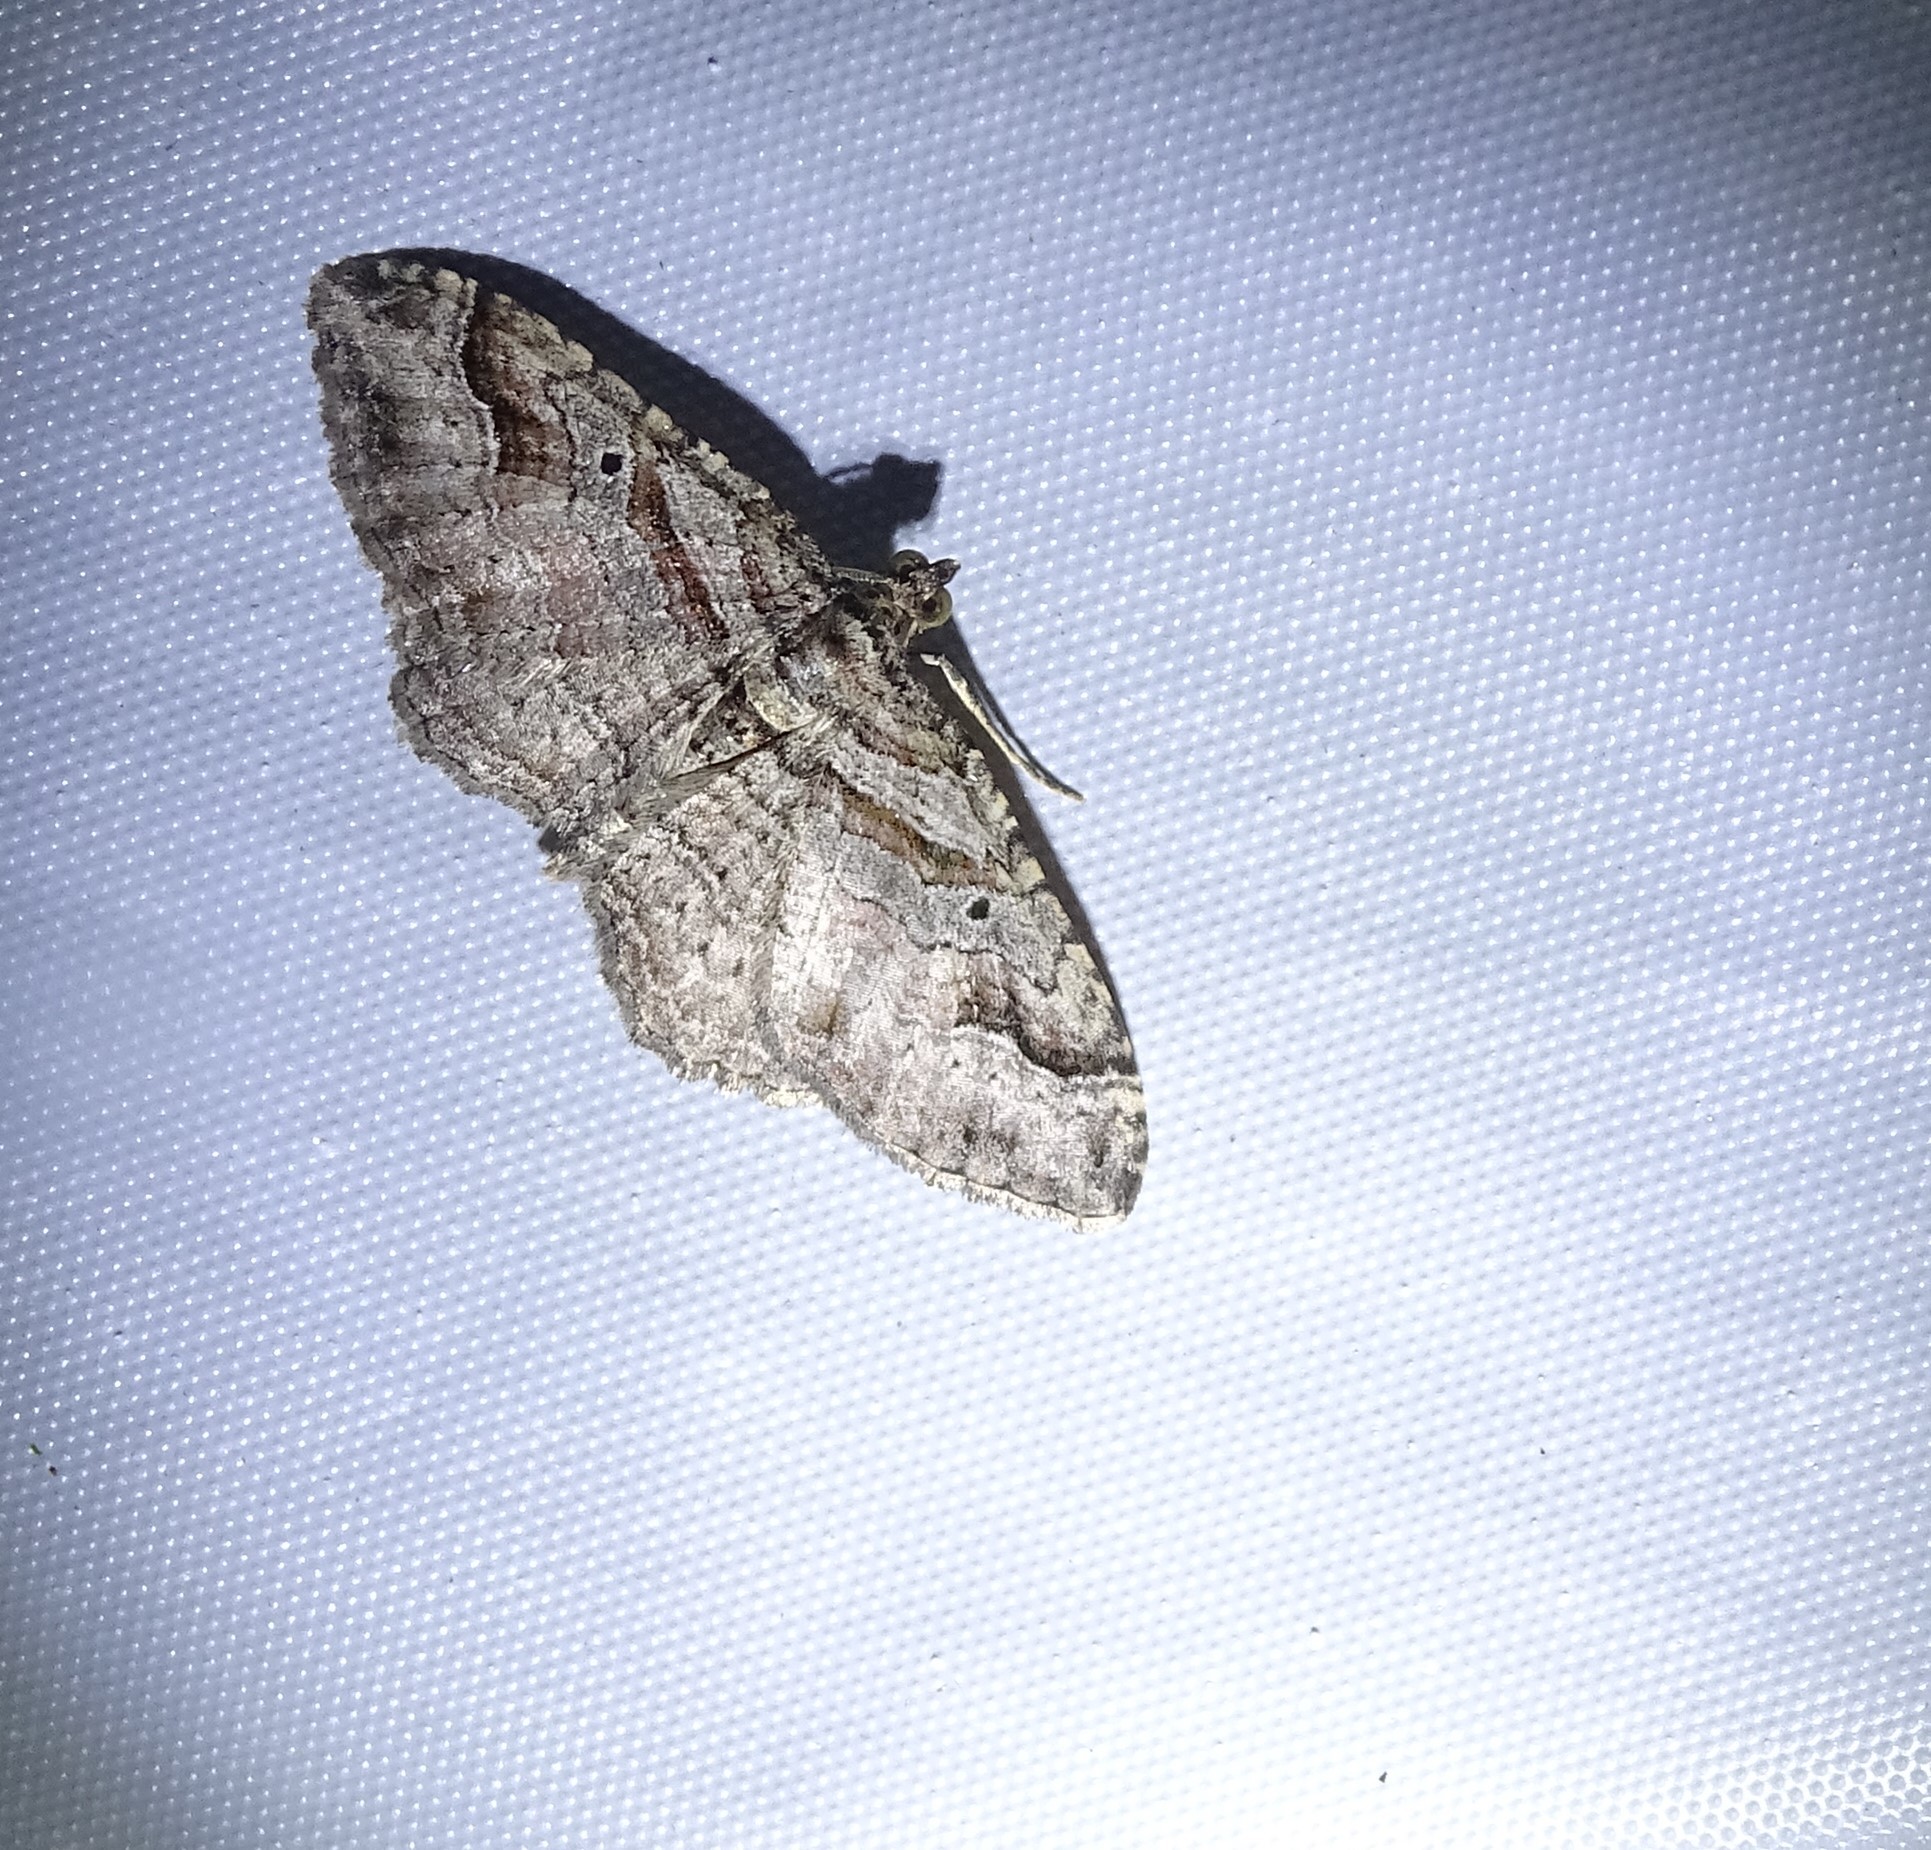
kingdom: Animalia
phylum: Arthropoda
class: Insecta
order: Lepidoptera
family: Geometridae
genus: Costaconvexa
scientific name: Costaconvexa centrostrigaria
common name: Bent-line carpet
